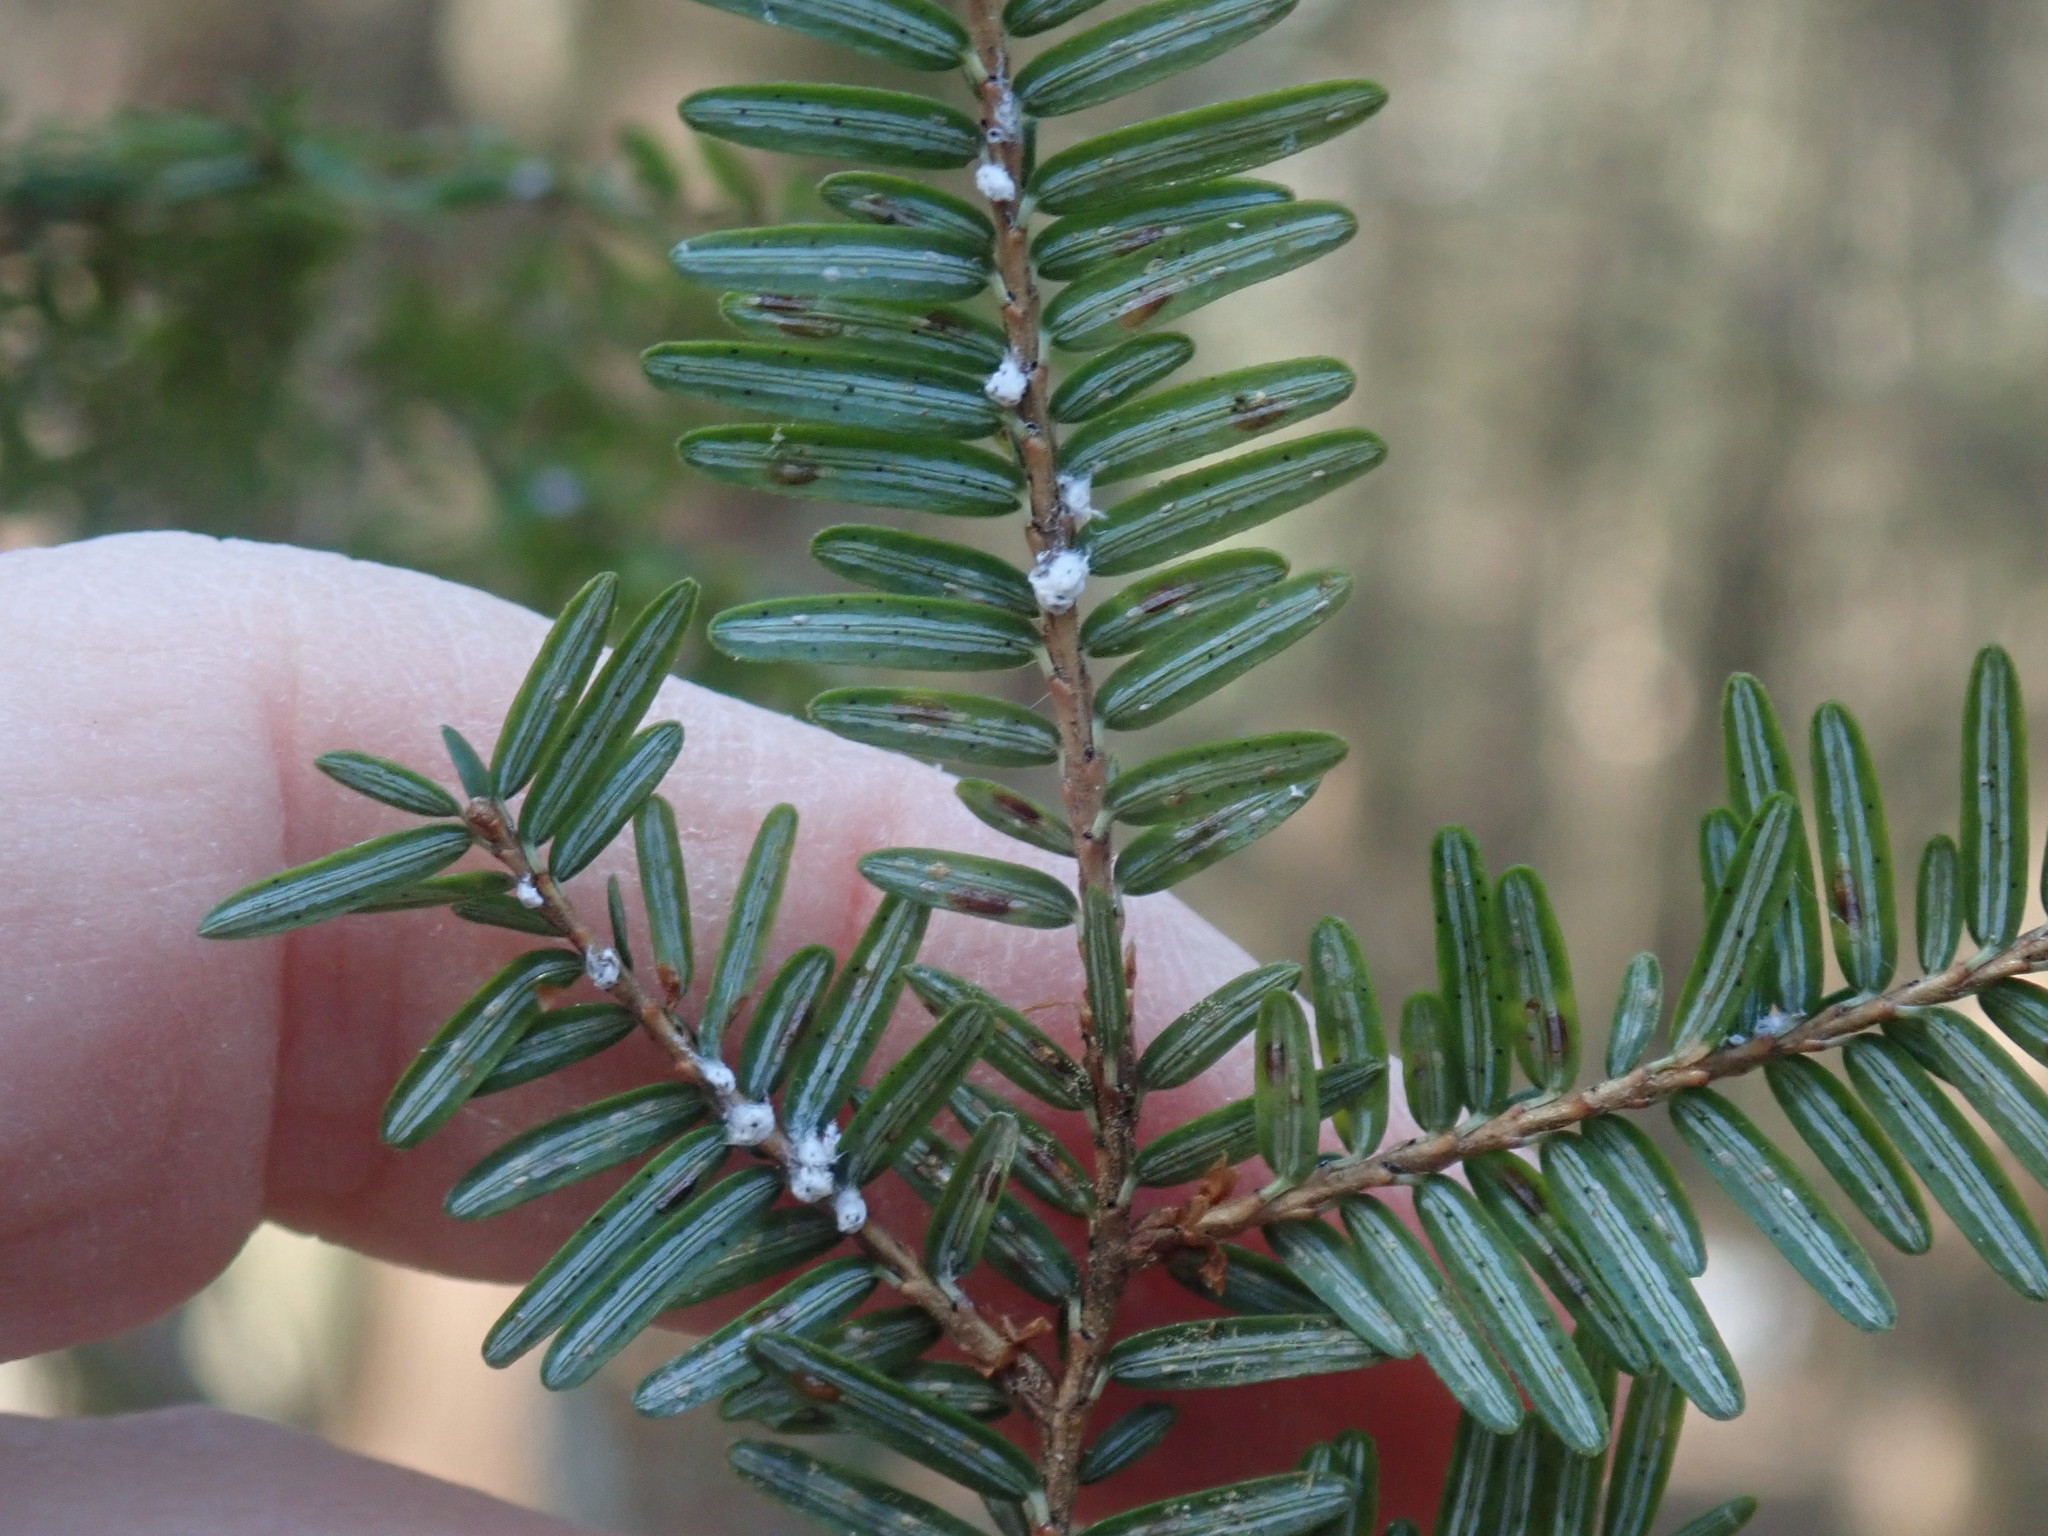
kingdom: Animalia
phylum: Arthropoda
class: Insecta
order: Hemiptera
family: Adelgidae
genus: Adelges
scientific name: Adelges tsugae
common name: Hemlock woolly adelgid
